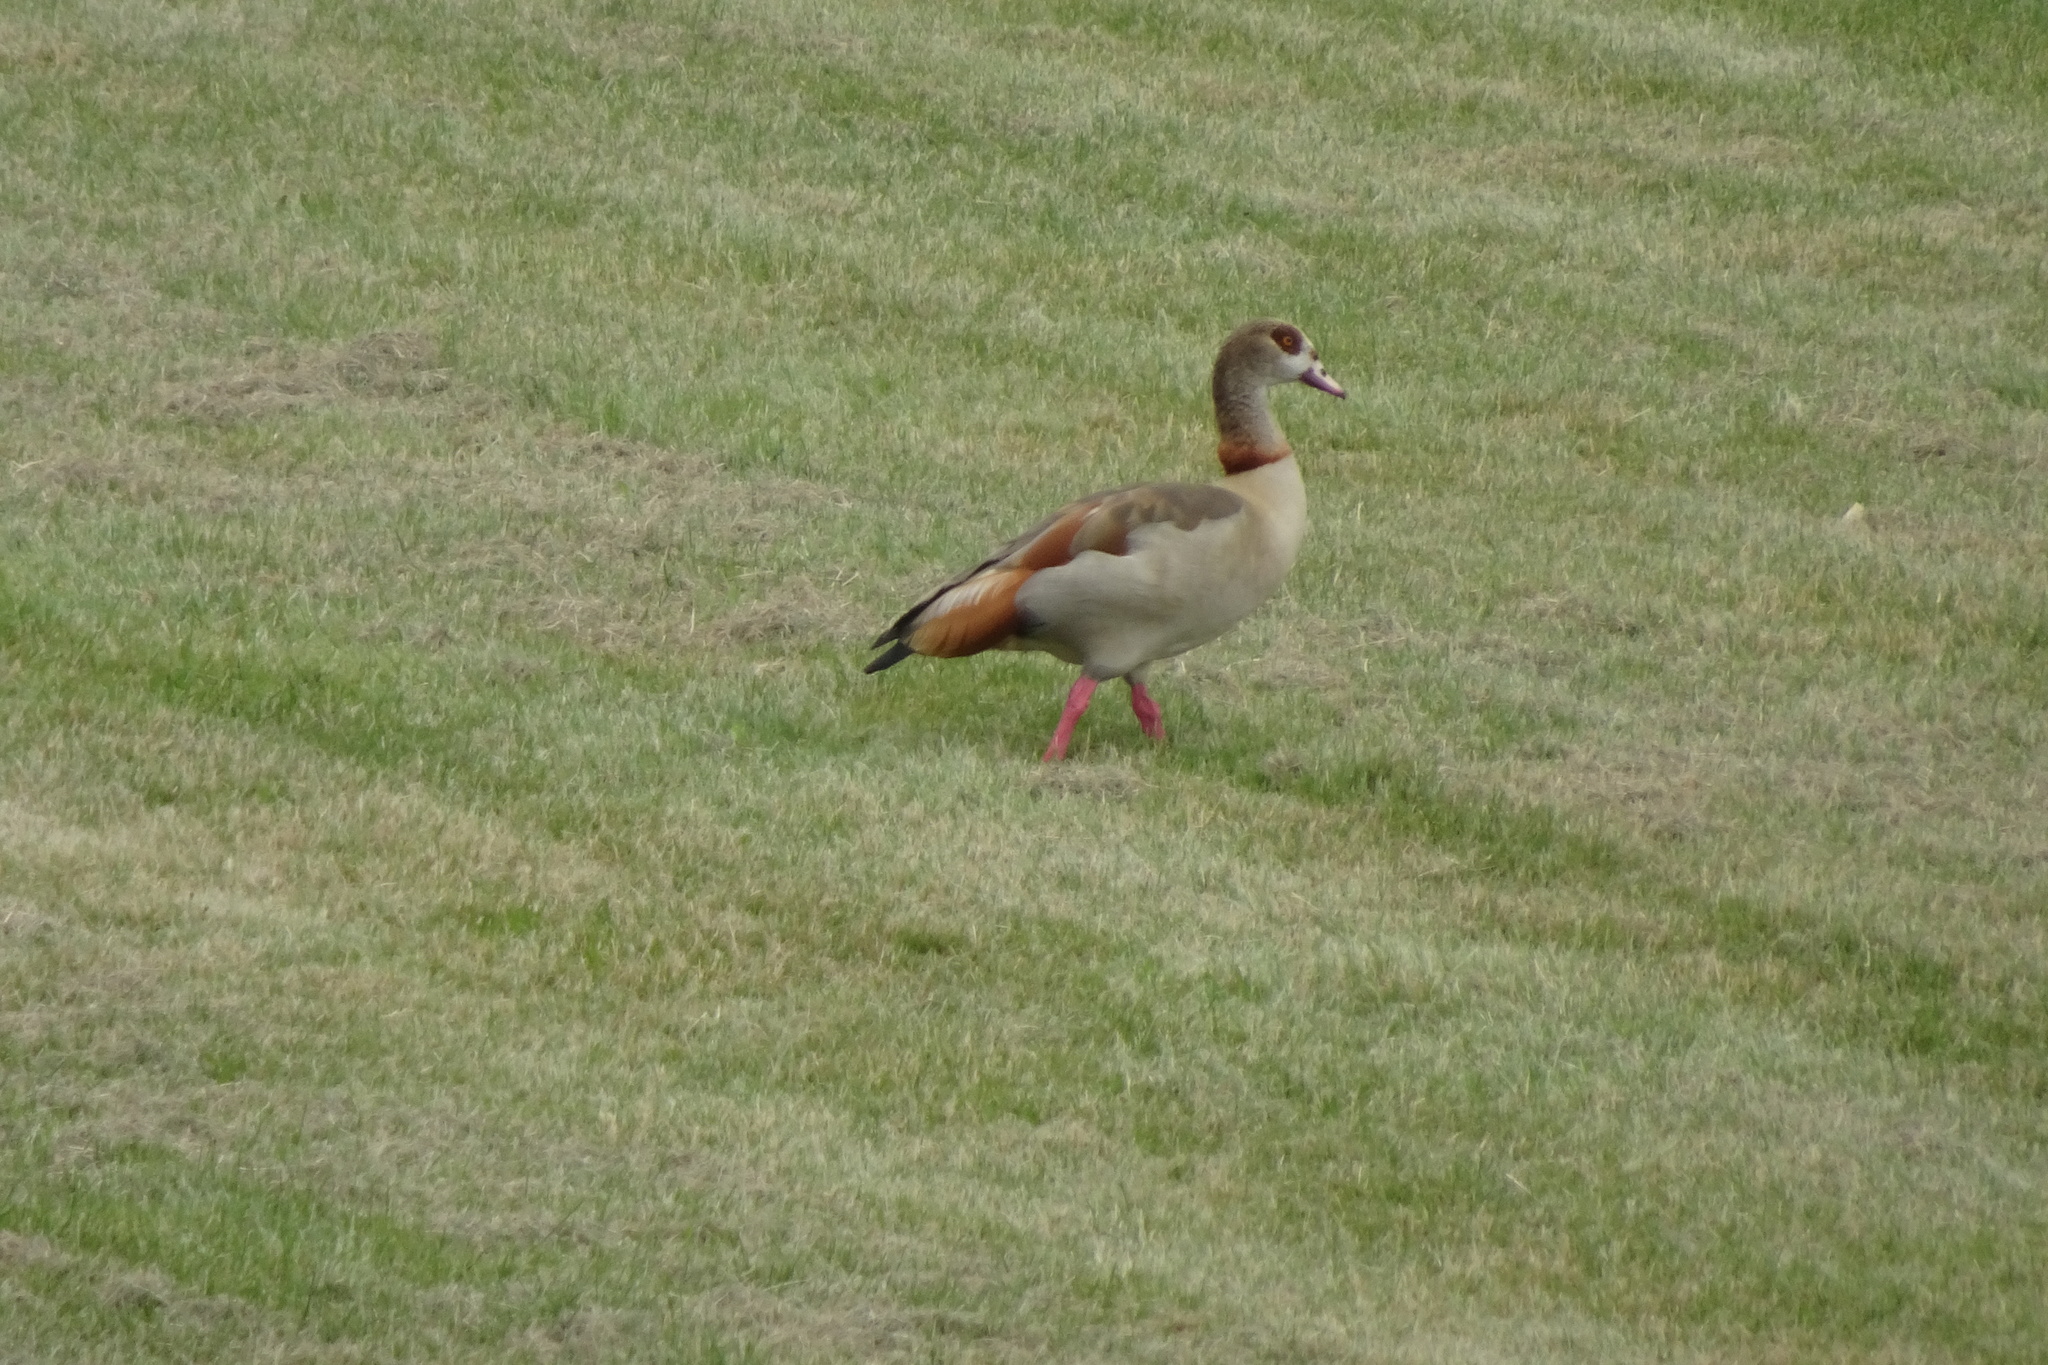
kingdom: Animalia
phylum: Chordata
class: Aves
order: Anseriformes
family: Anatidae
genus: Alopochen
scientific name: Alopochen aegyptiaca
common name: Egyptian goose
